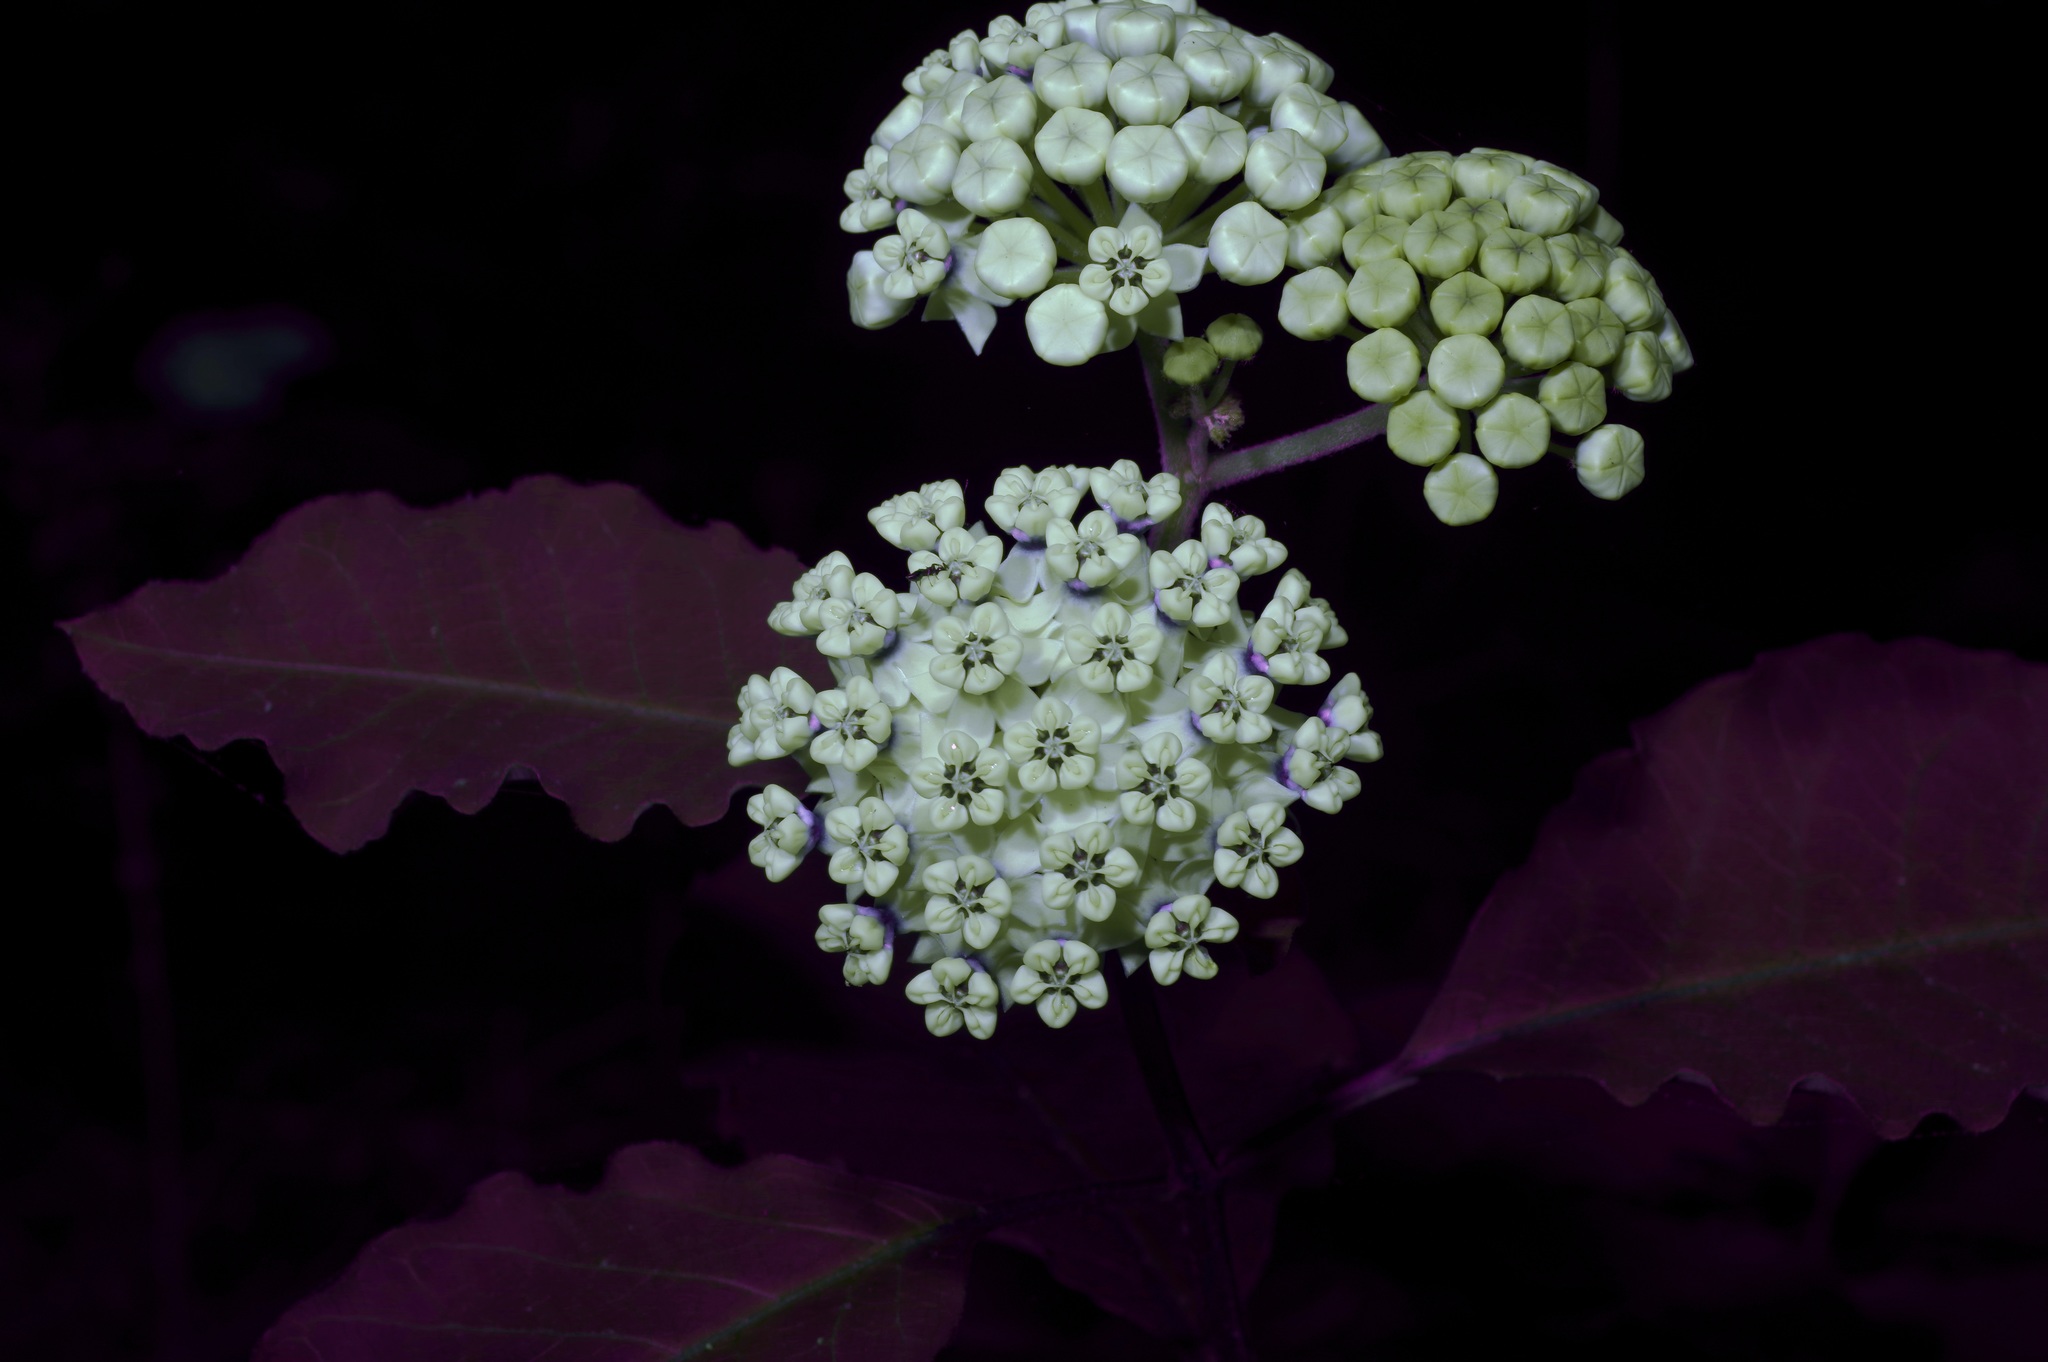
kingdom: Plantae
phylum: Tracheophyta
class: Magnoliopsida
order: Gentianales
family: Apocynaceae
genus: Asclepias
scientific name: Asclepias variegata
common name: Variegated milkweed
